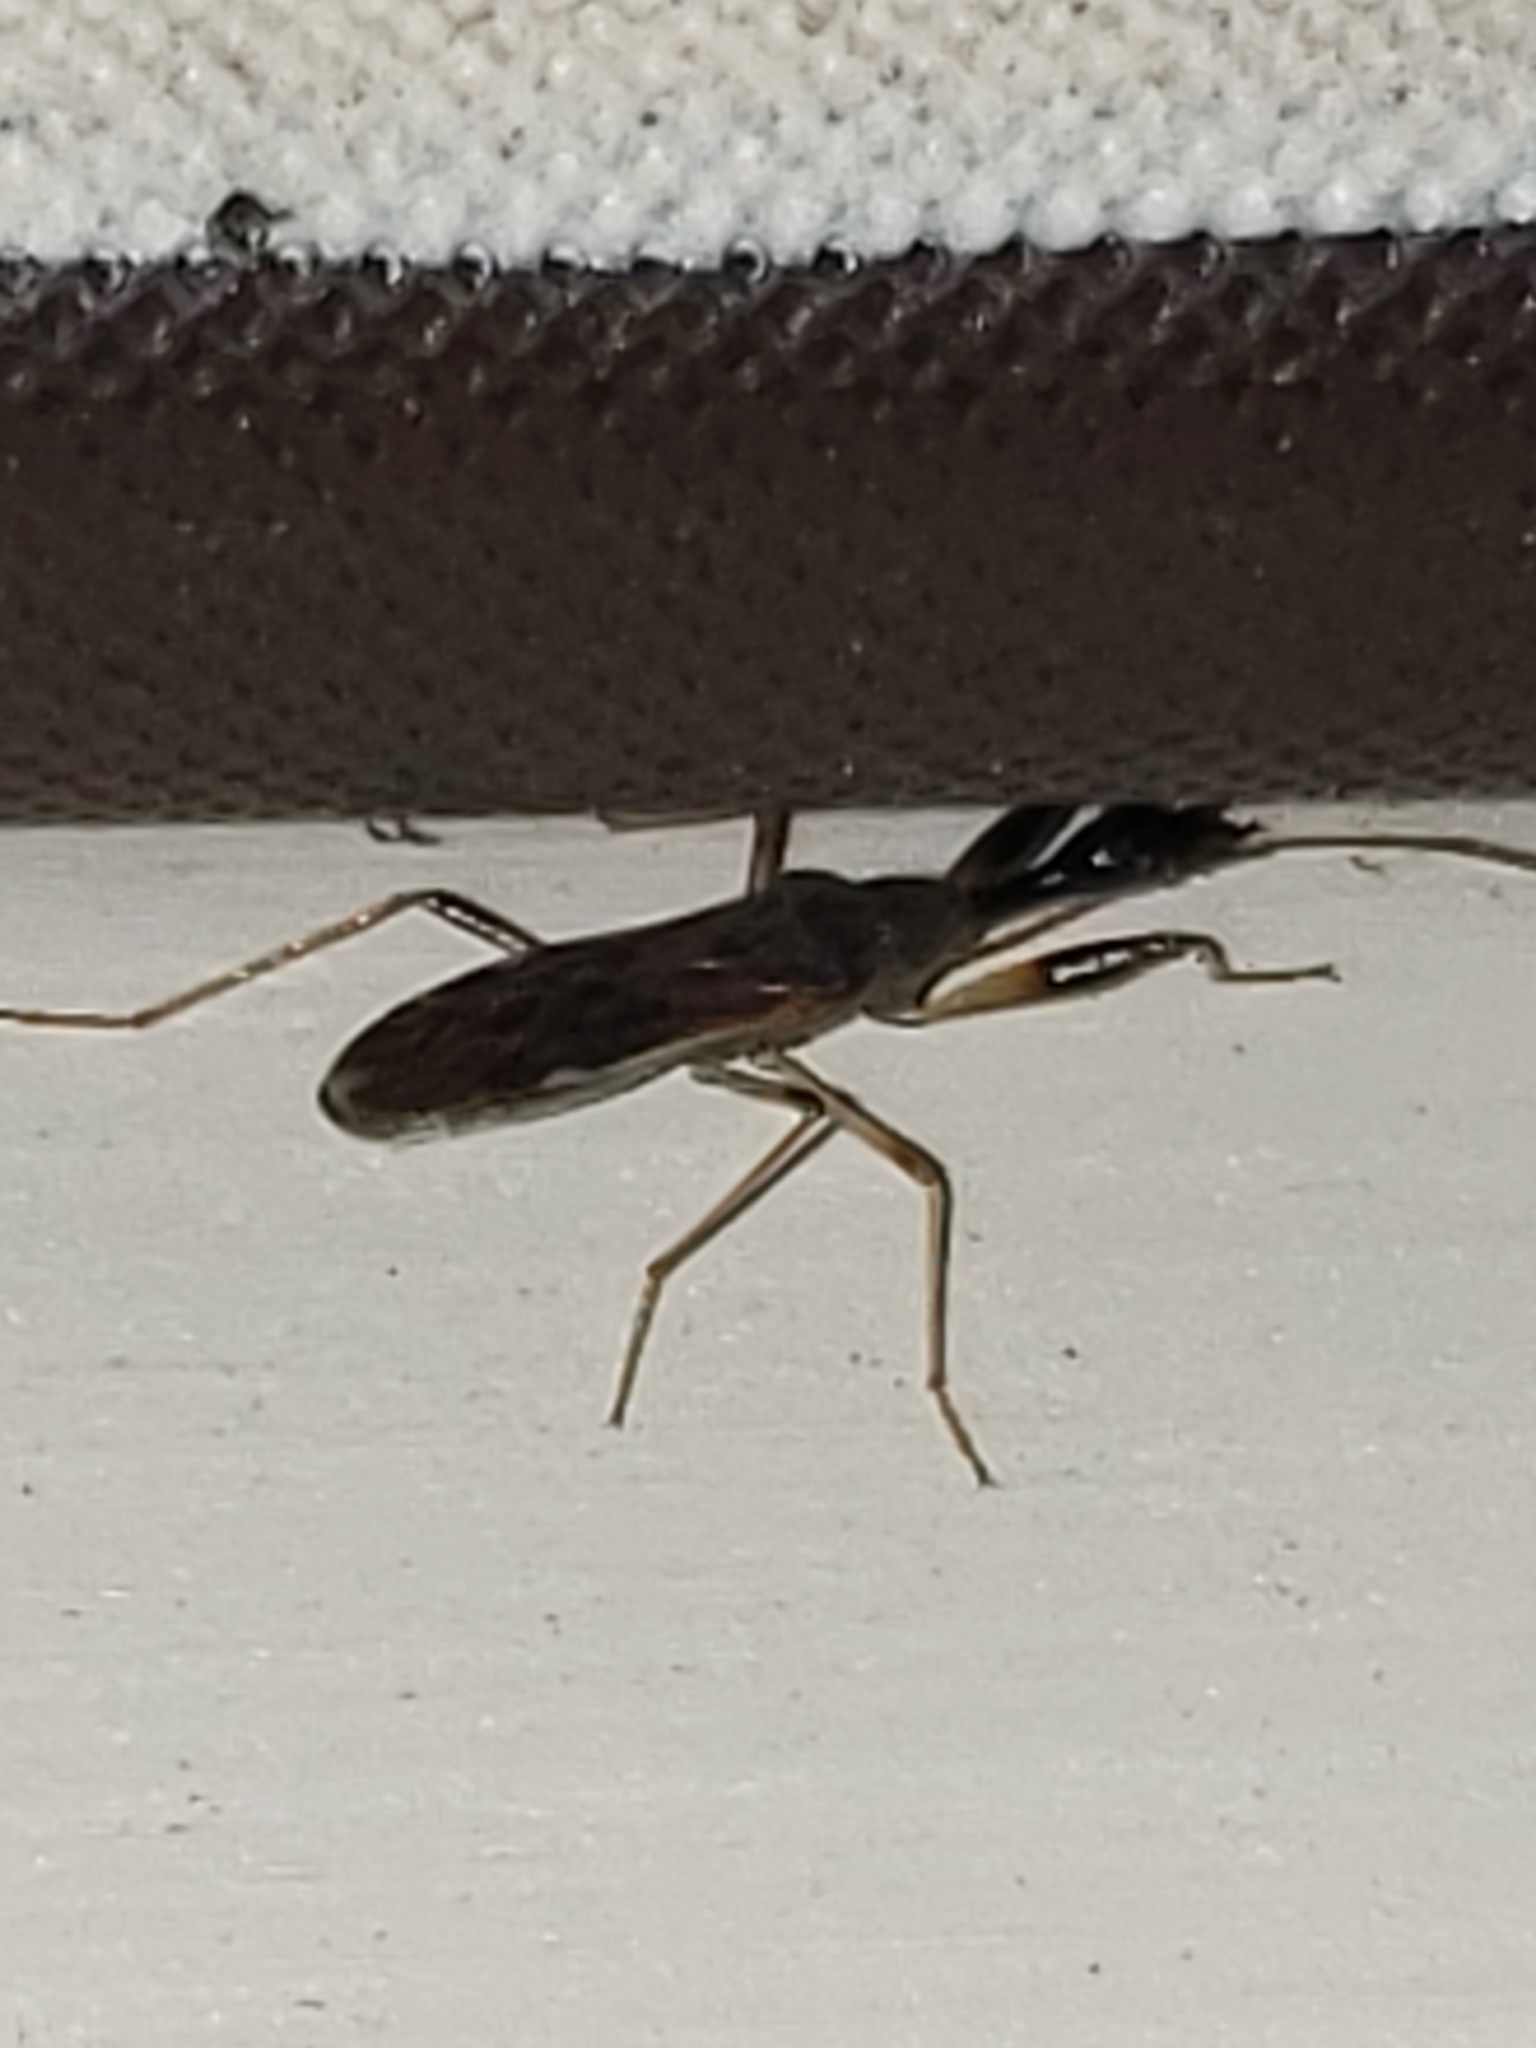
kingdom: Animalia
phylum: Arthropoda
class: Insecta
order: Hemiptera
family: Rhyparochromidae
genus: Myodocha
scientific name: Myodocha serripes
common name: Long-necked seed bug
